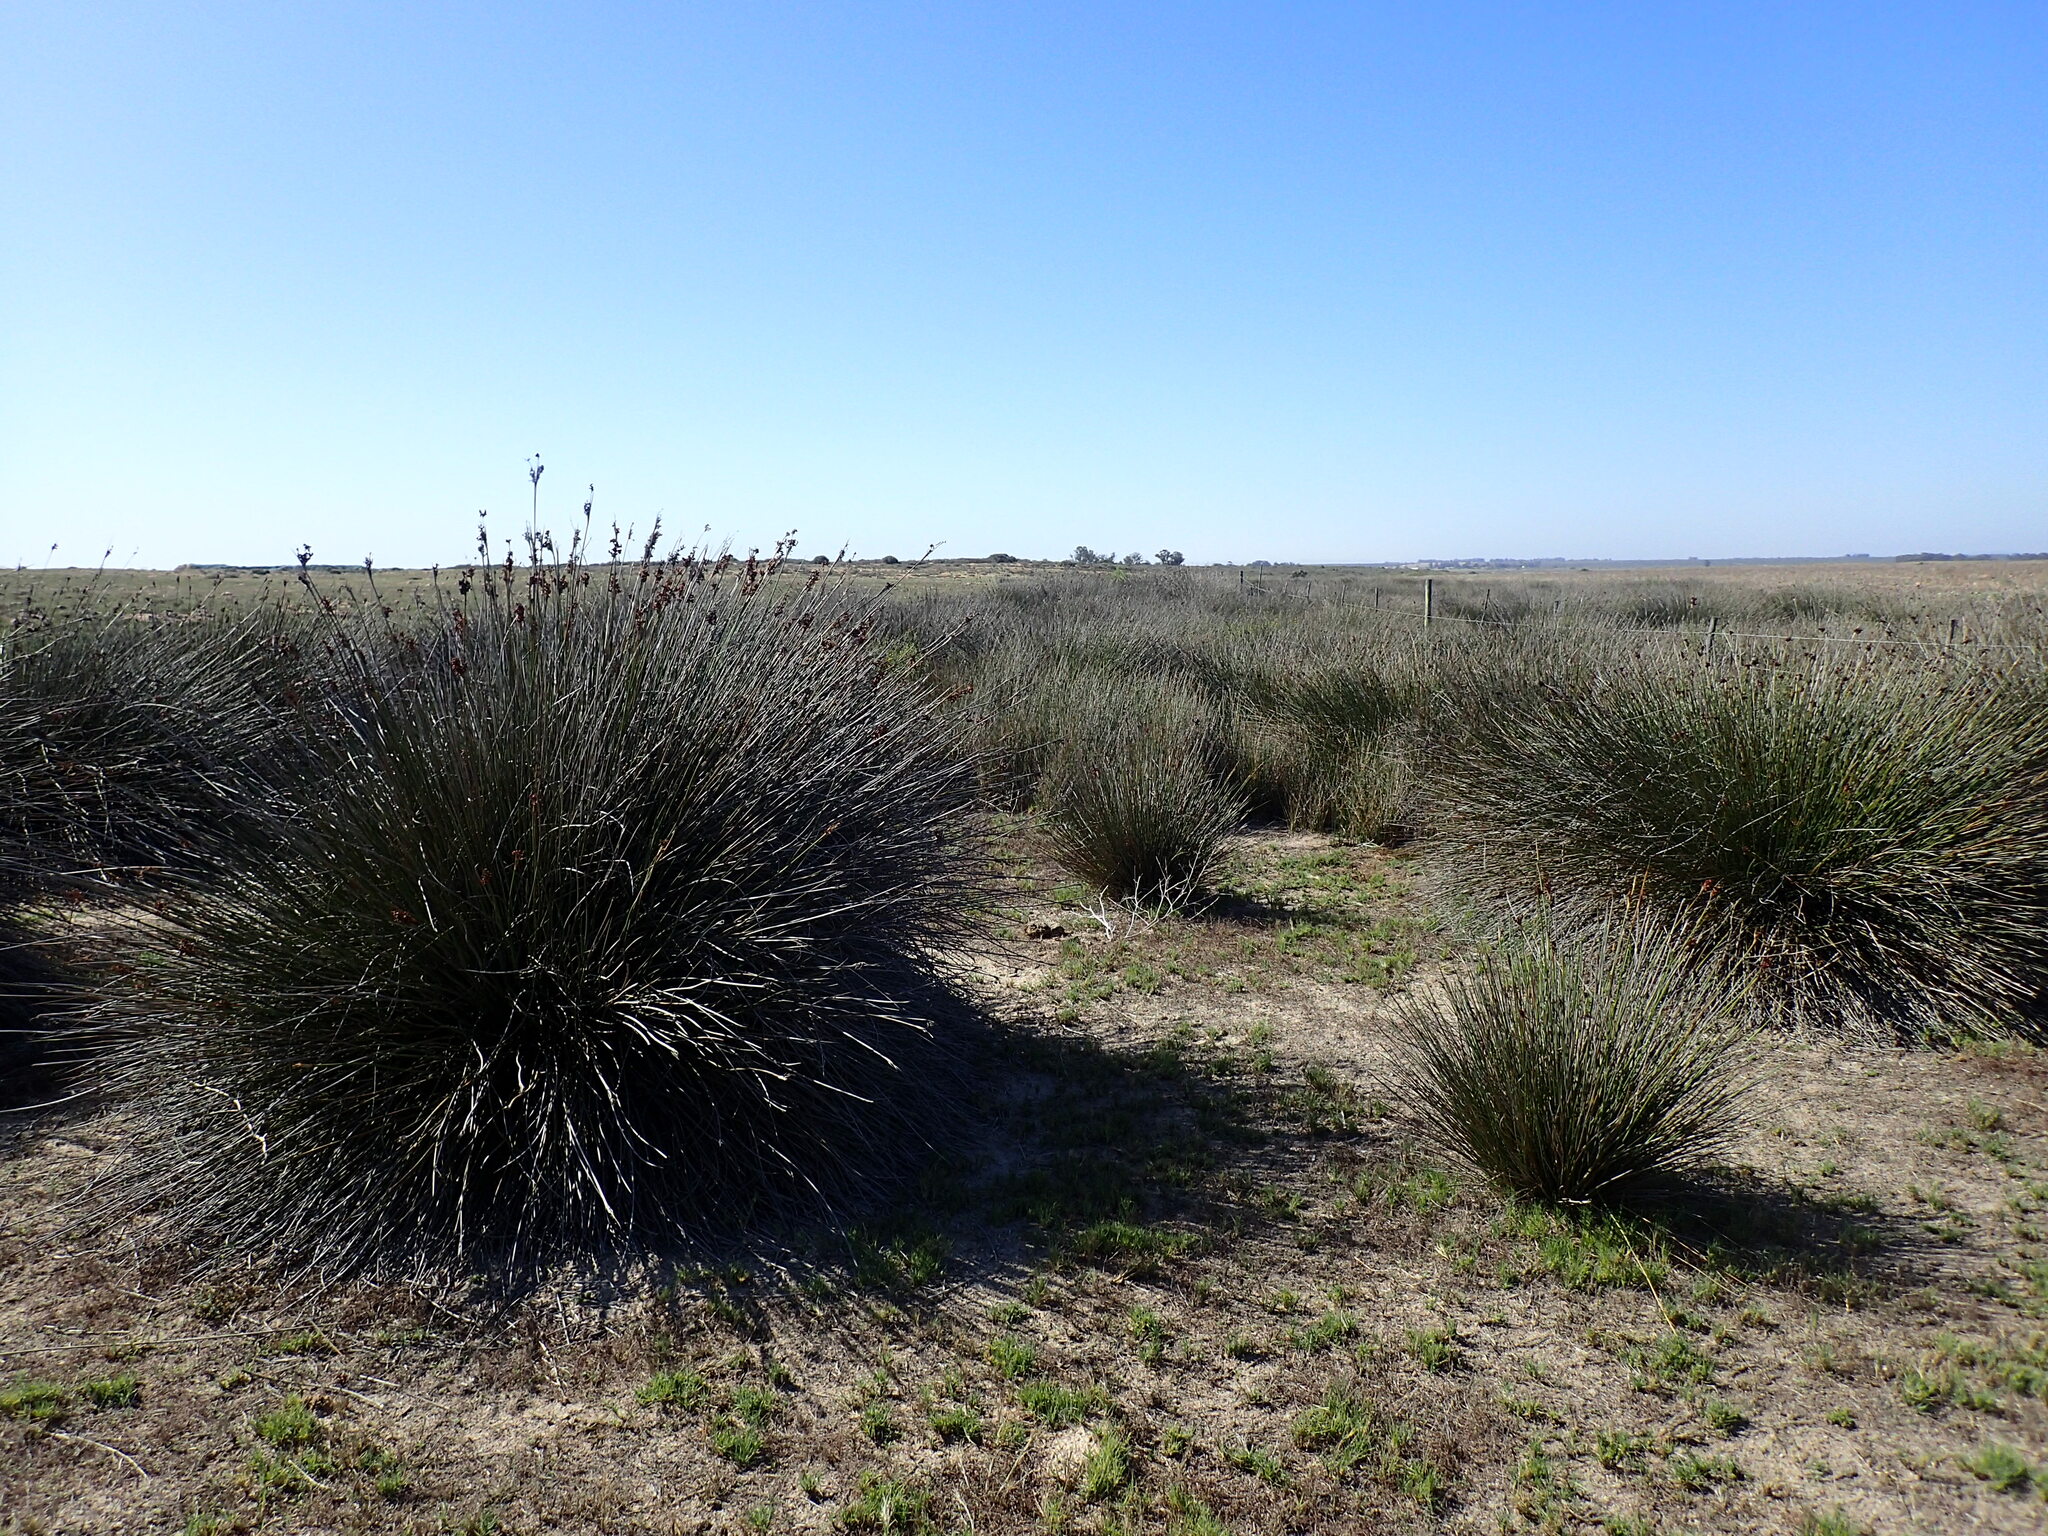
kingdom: Plantae
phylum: Tracheophyta
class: Liliopsida
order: Poales
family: Juncaceae
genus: Juncus
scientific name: Juncus acutus
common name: Sharp rush
